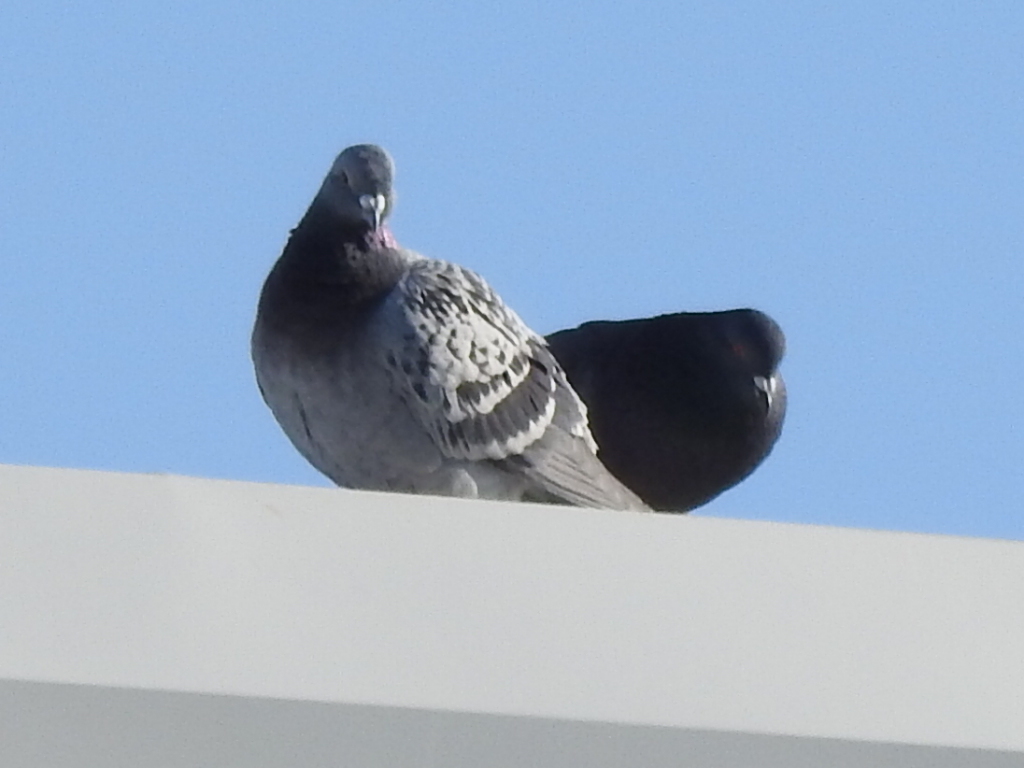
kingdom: Animalia
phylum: Chordata
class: Aves
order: Columbiformes
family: Columbidae
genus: Columba
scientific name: Columba livia
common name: Rock pigeon
